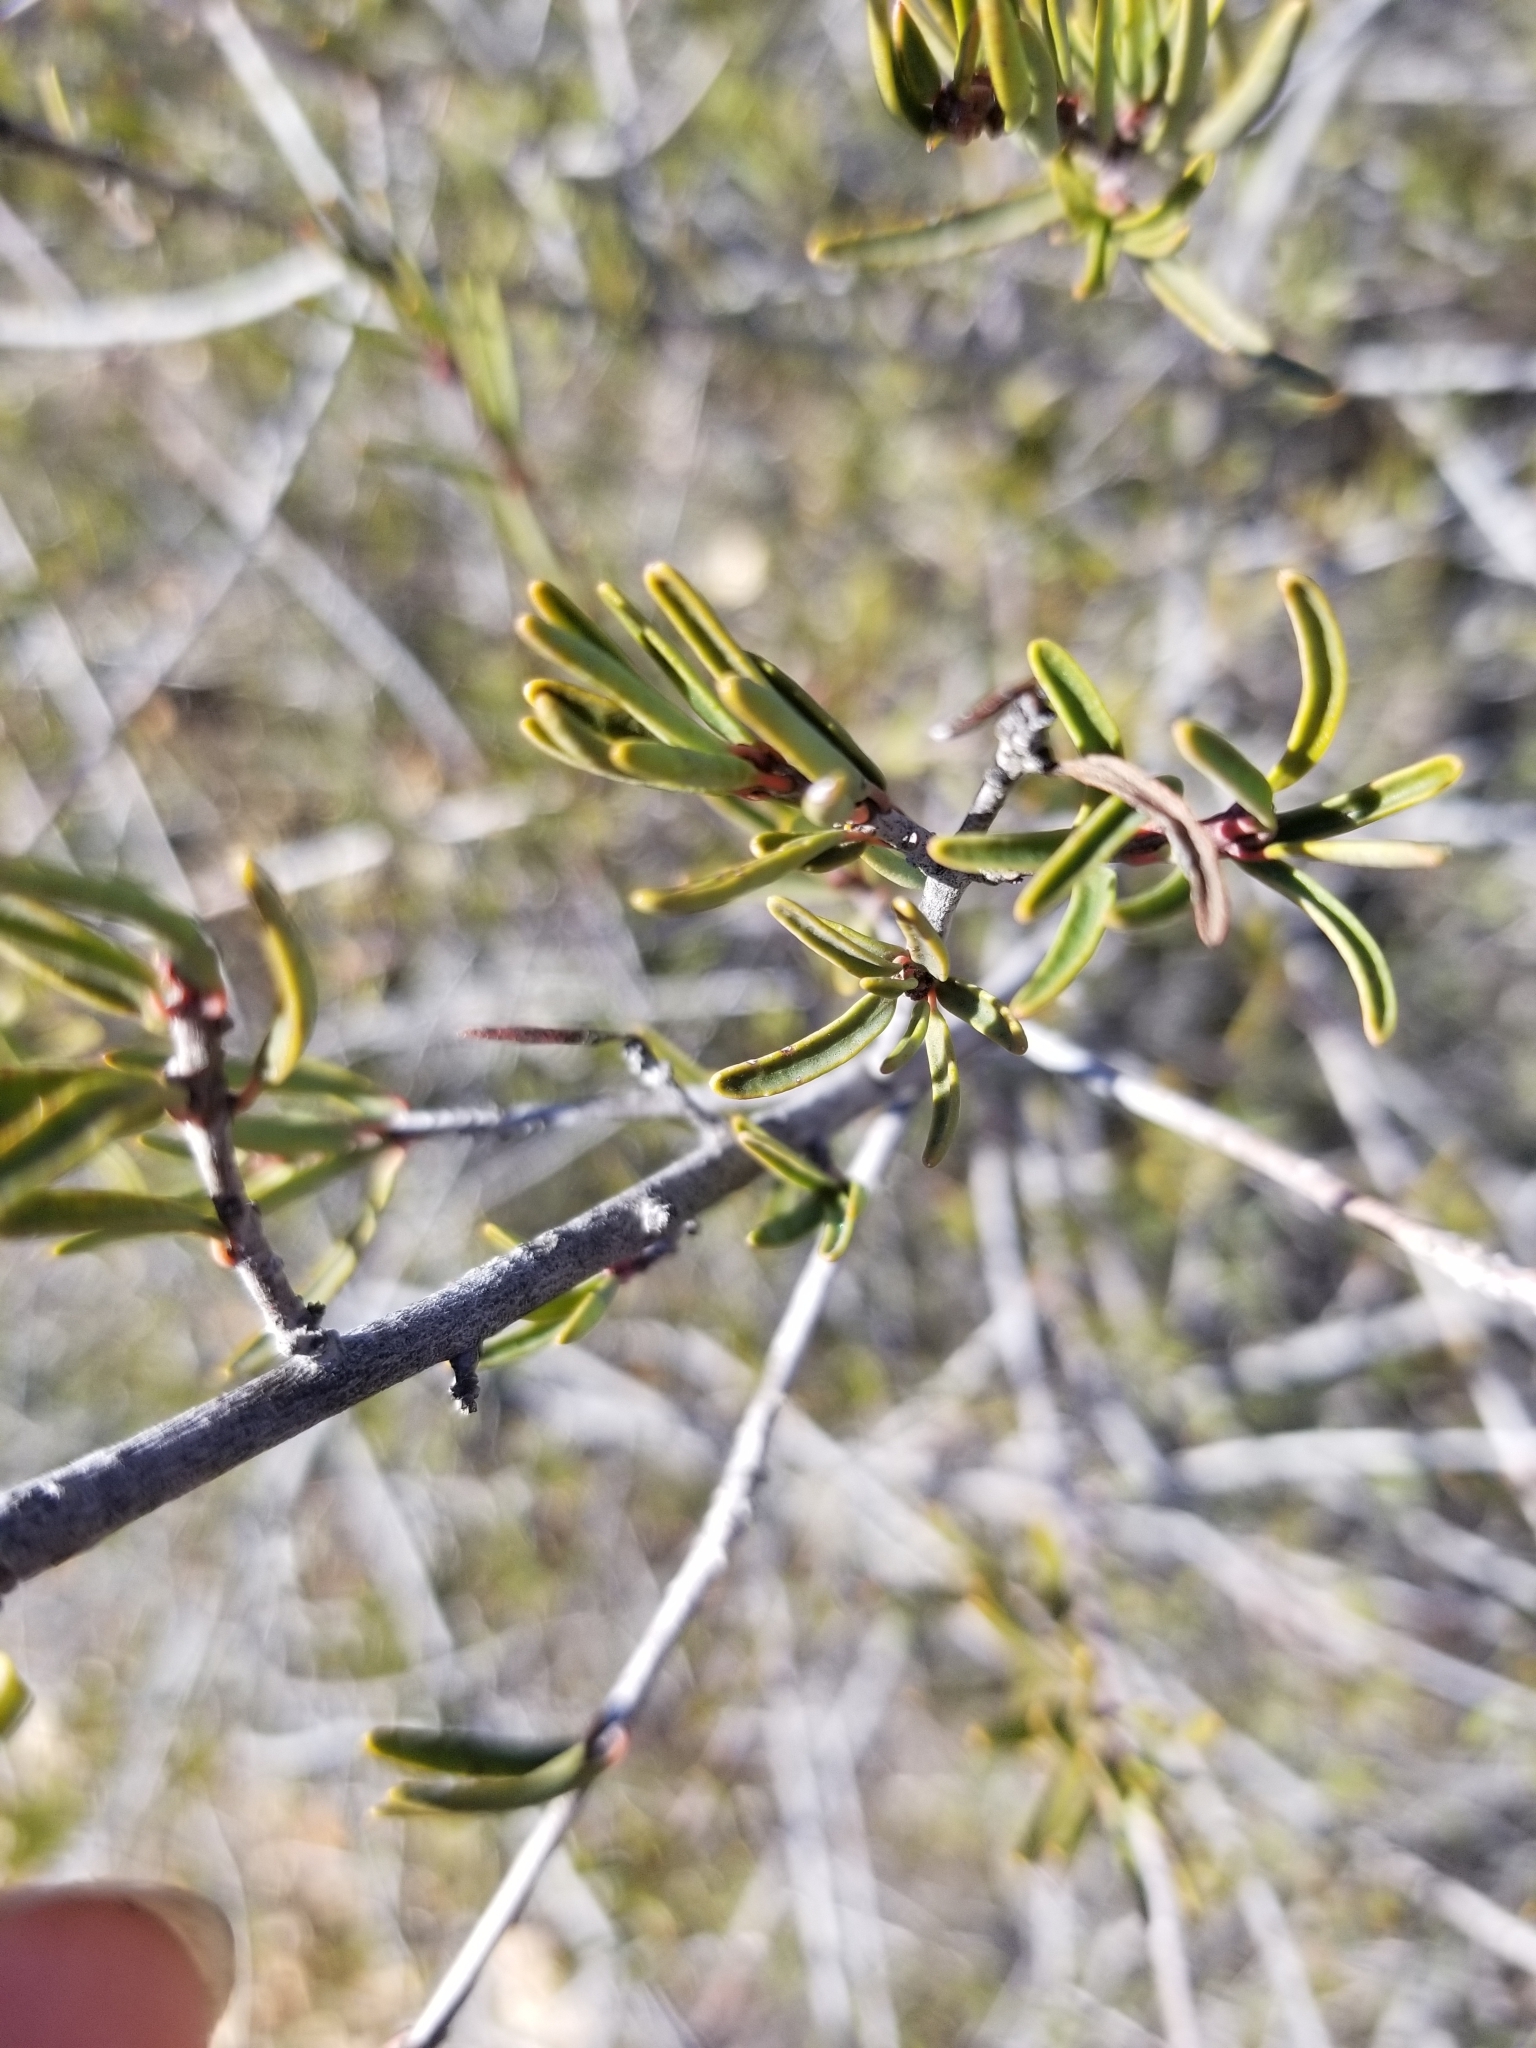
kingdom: Plantae
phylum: Tracheophyta
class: Magnoliopsida
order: Malpighiales
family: Picrodendraceae
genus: Tetracoccus
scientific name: Tetracoccus dioicus
